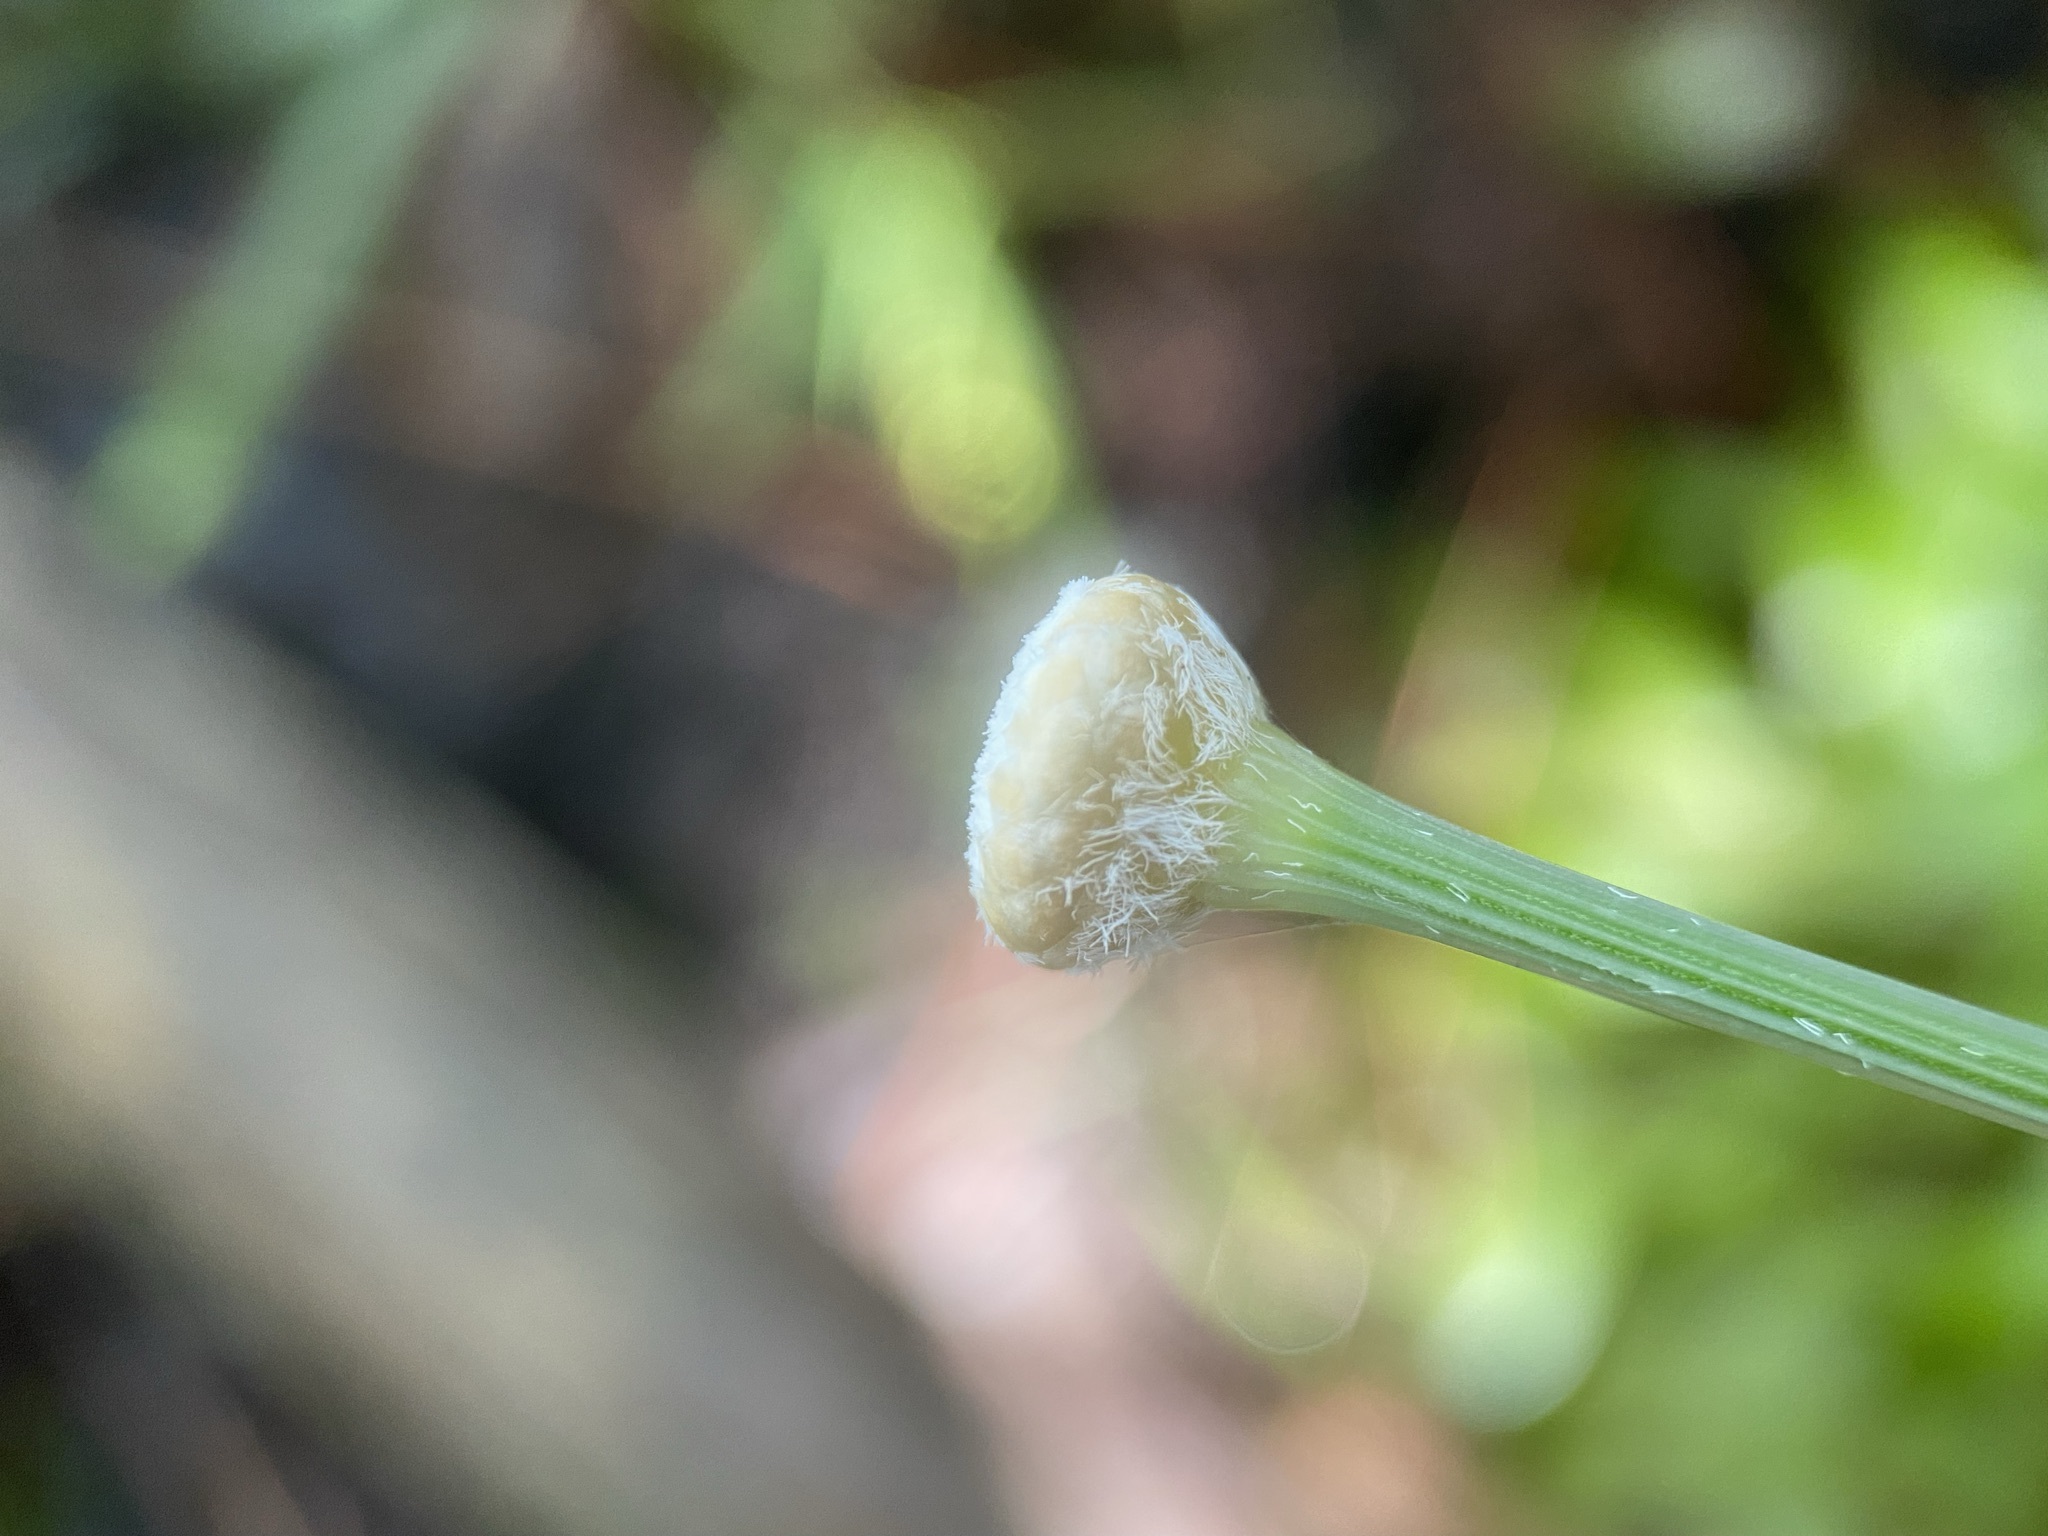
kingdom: Plantae
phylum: Tracheophyta
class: Liliopsida
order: Poales
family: Eriocaulaceae
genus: Eriocaulon
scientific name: Eriocaulon decangulare
